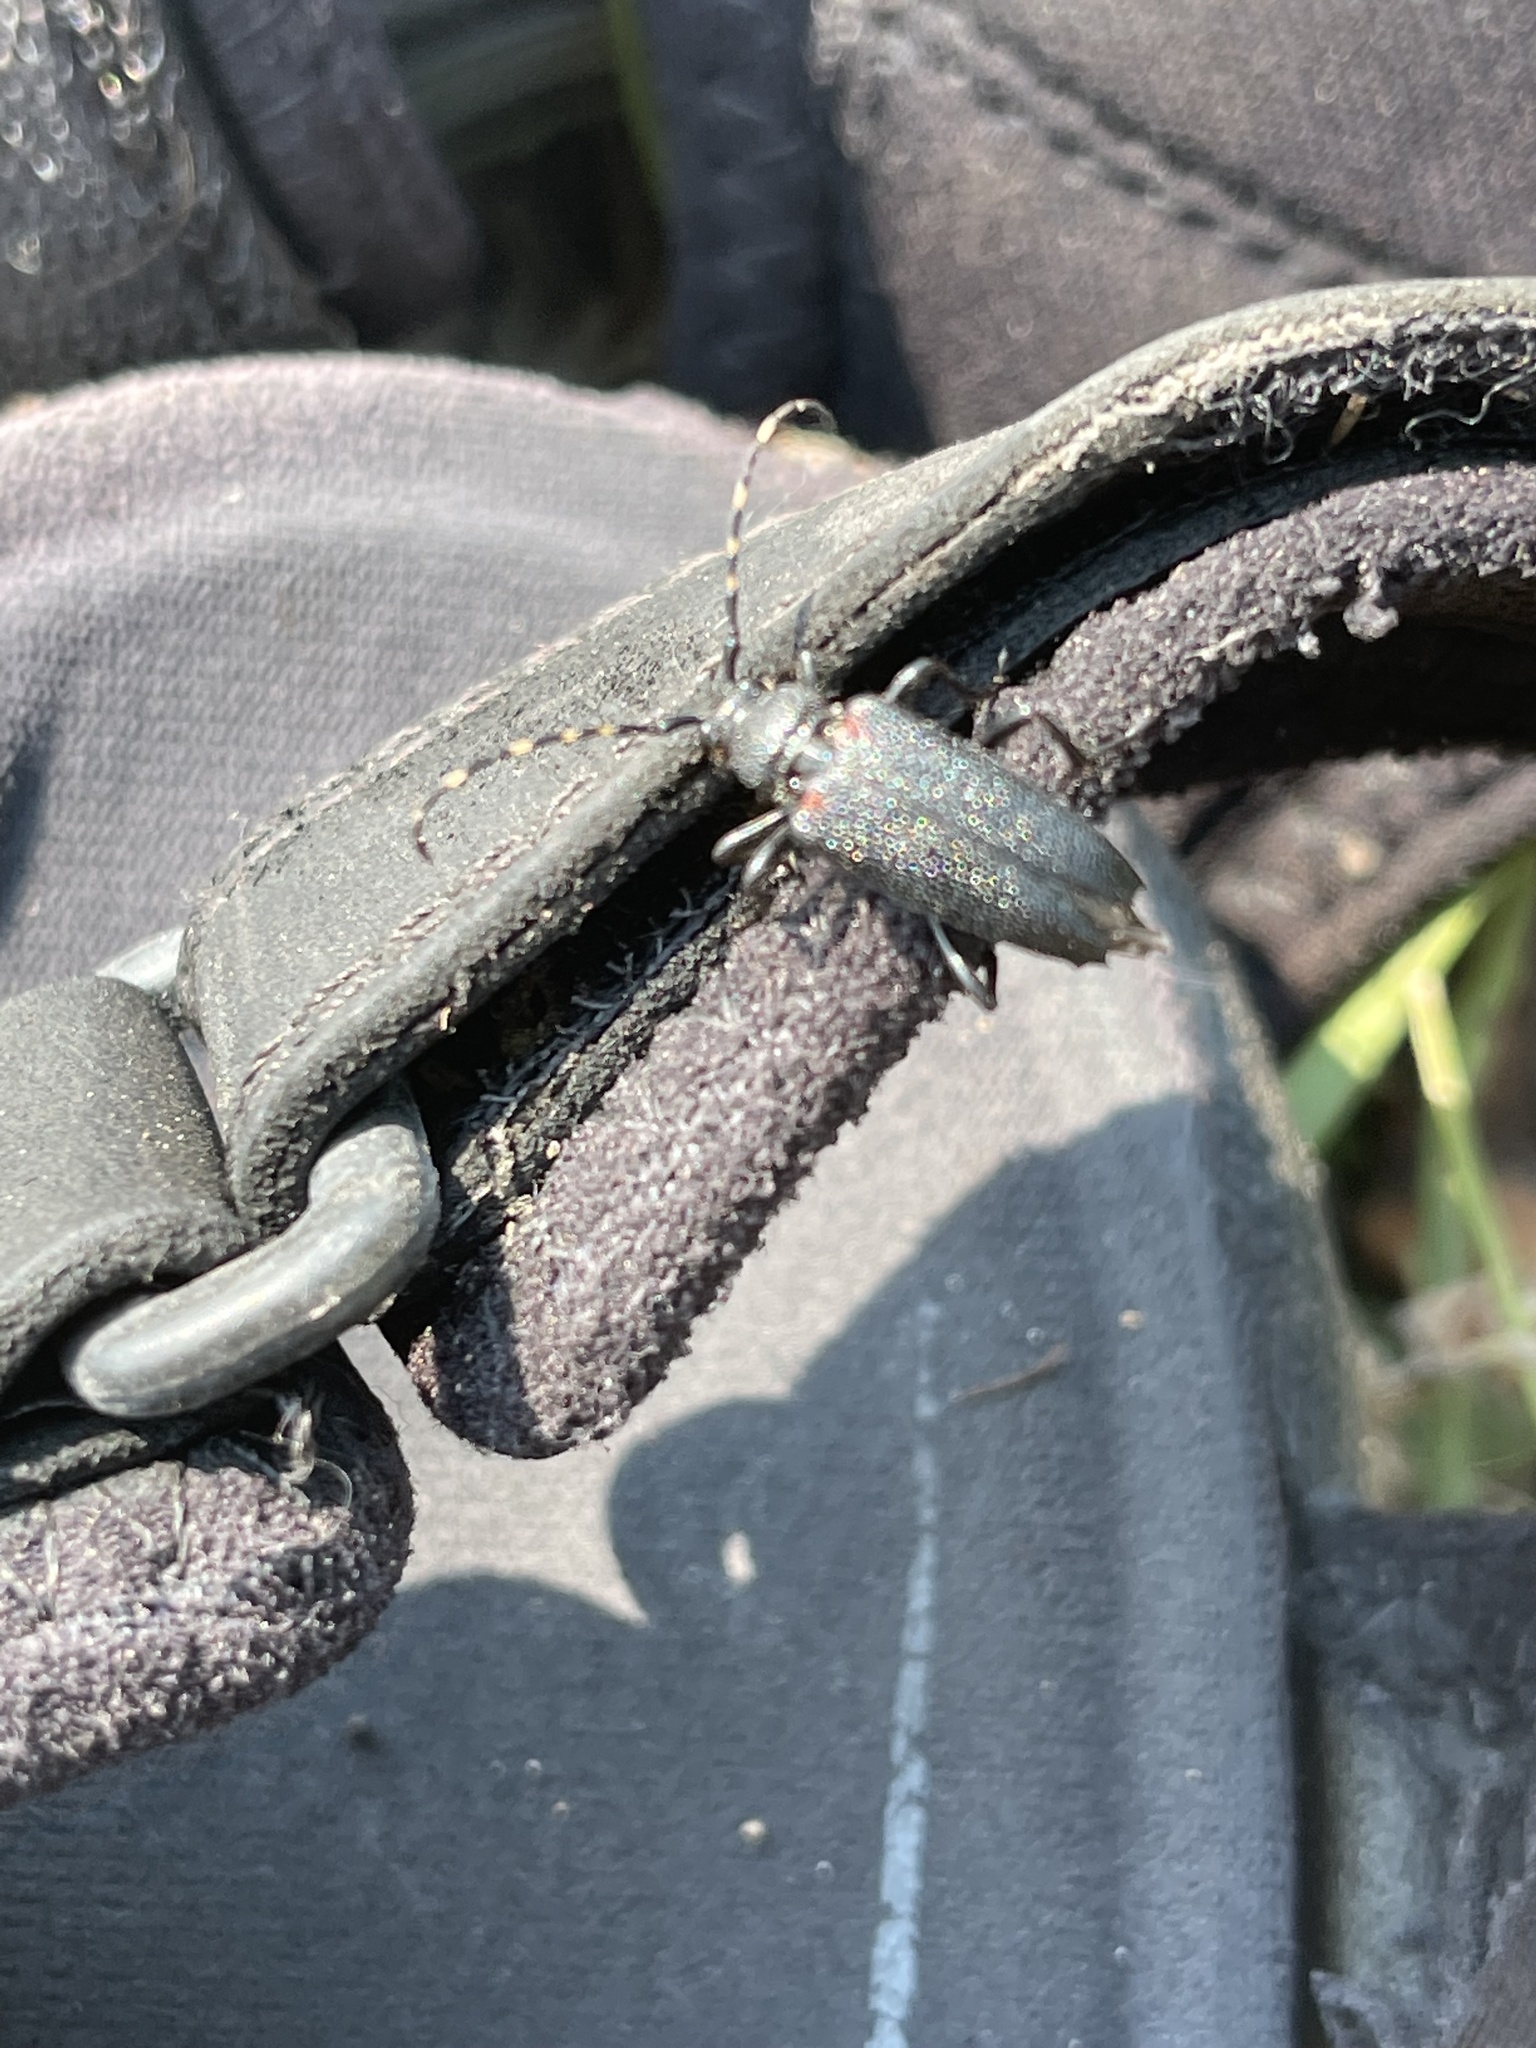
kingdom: Animalia
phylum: Arthropoda
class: Insecta
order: Coleoptera
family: Cerambycidae
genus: Stictoleptura
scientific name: Stictoleptura canadensis
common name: Red-shouldered pine borer
